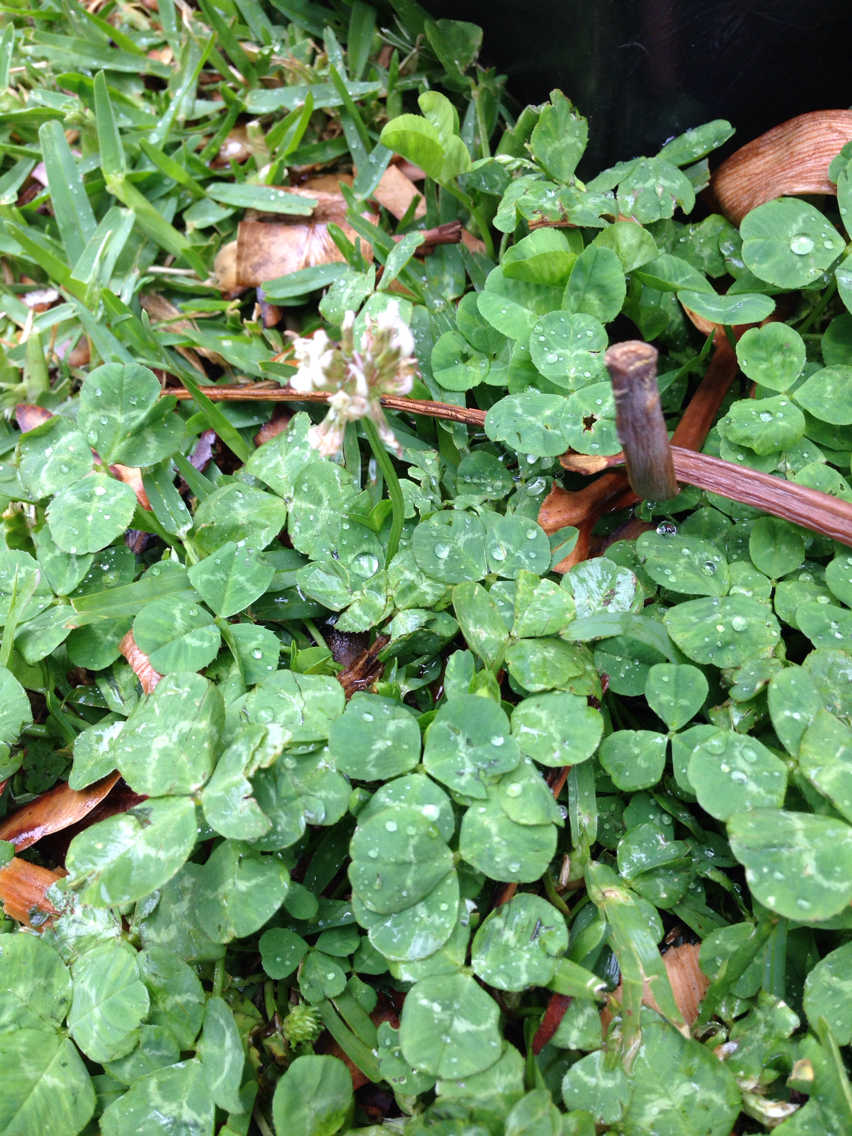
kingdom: Plantae
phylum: Tracheophyta
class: Magnoliopsida
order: Fabales
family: Fabaceae
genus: Trifolium
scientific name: Trifolium repens
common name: White clover
